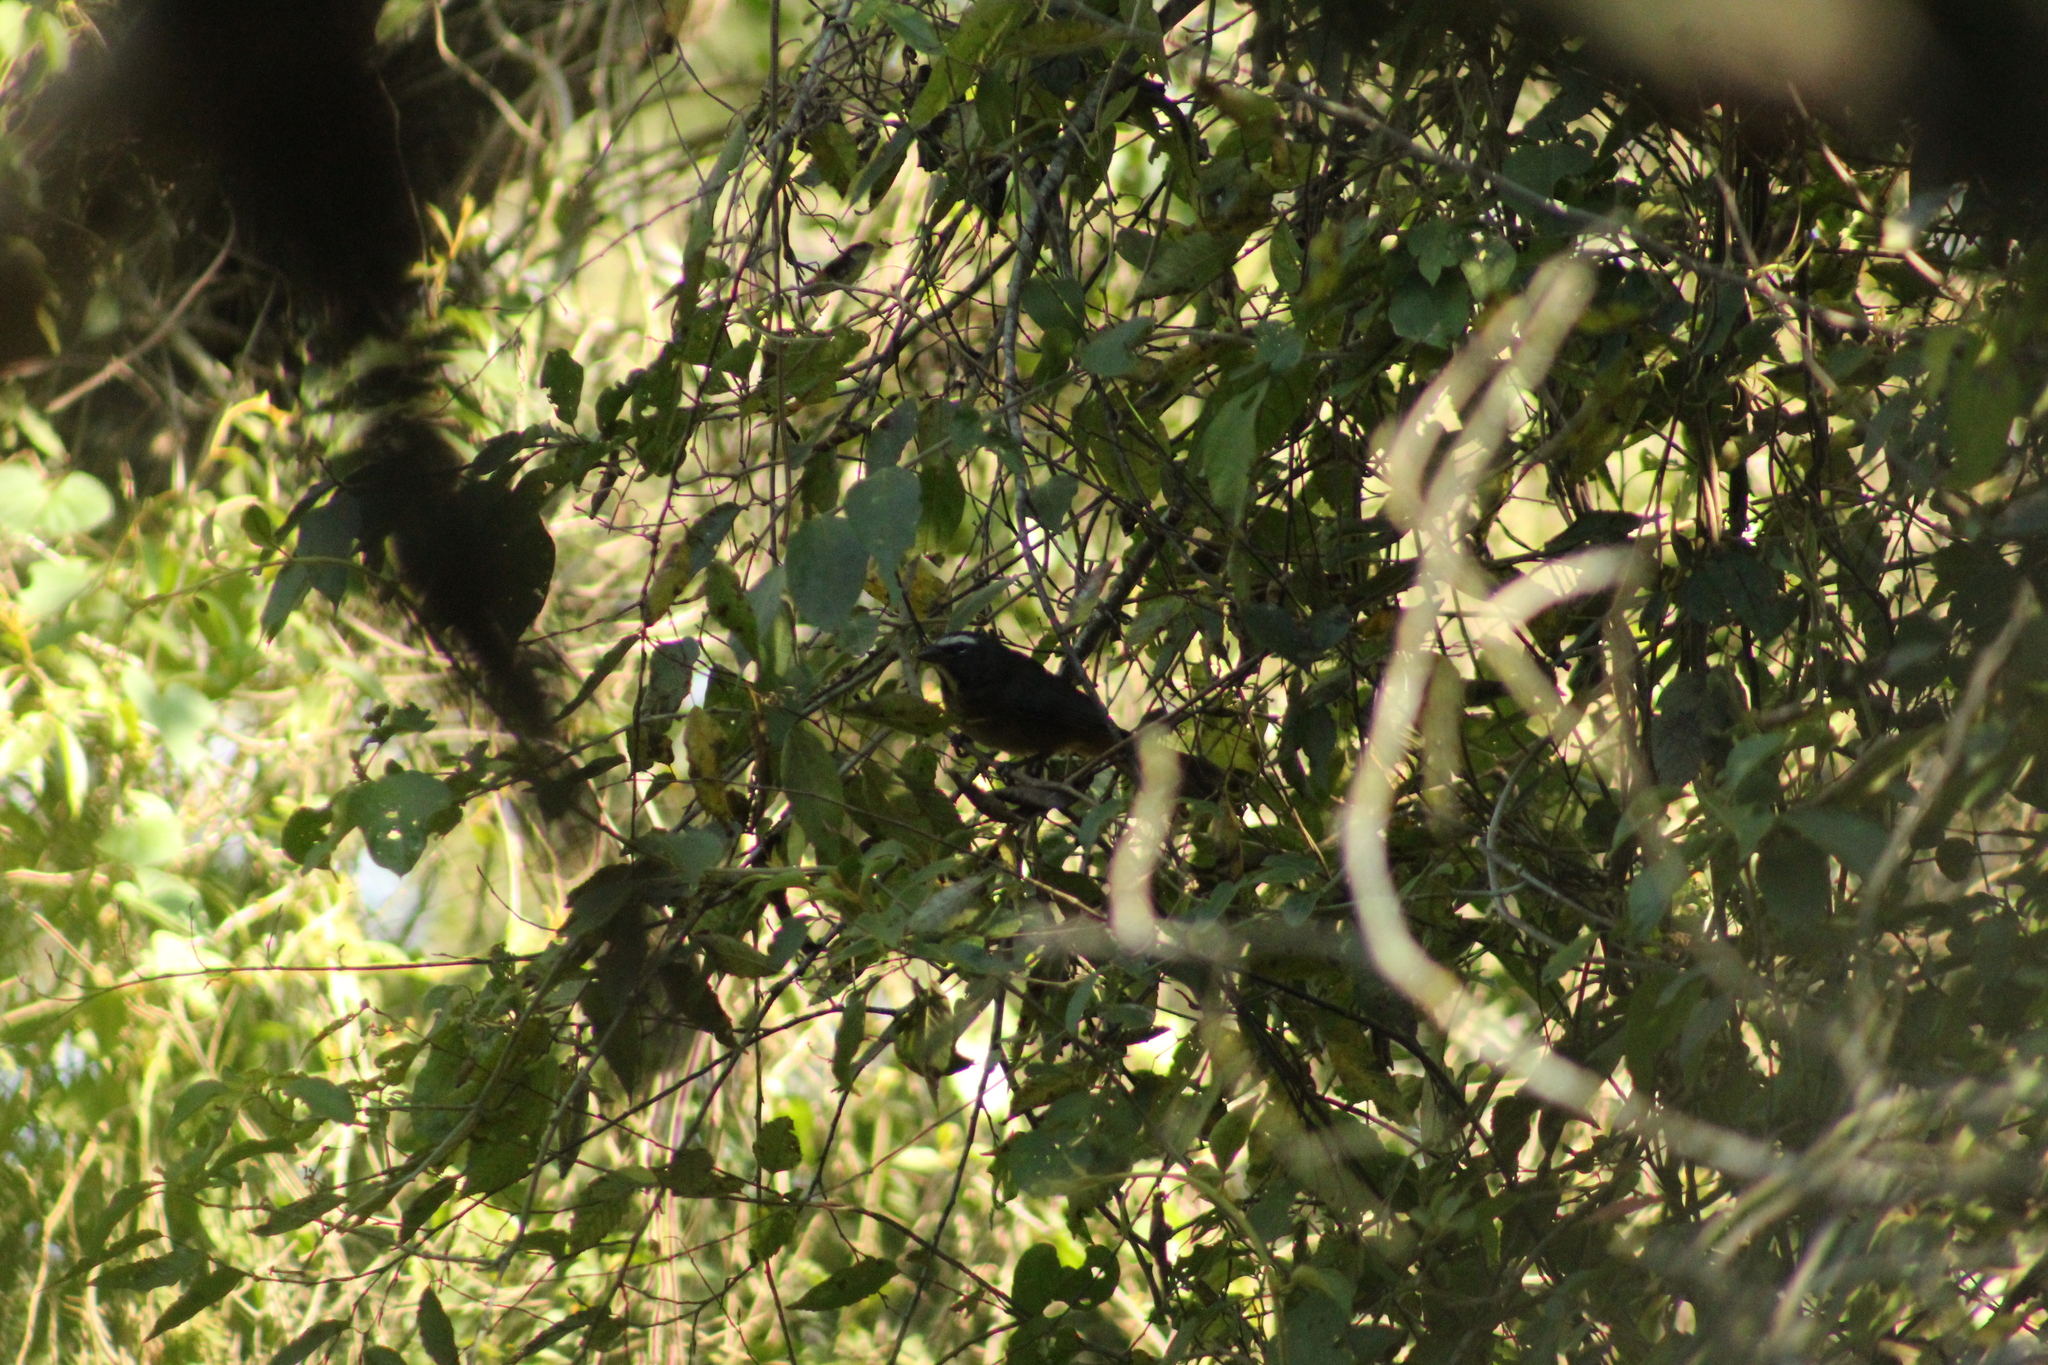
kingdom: Animalia
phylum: Chordata
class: Aves
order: Passeriformes
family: Thraupidae
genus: Saltator
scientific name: Saltator grandis
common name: Cinnamon-bellied saltator
